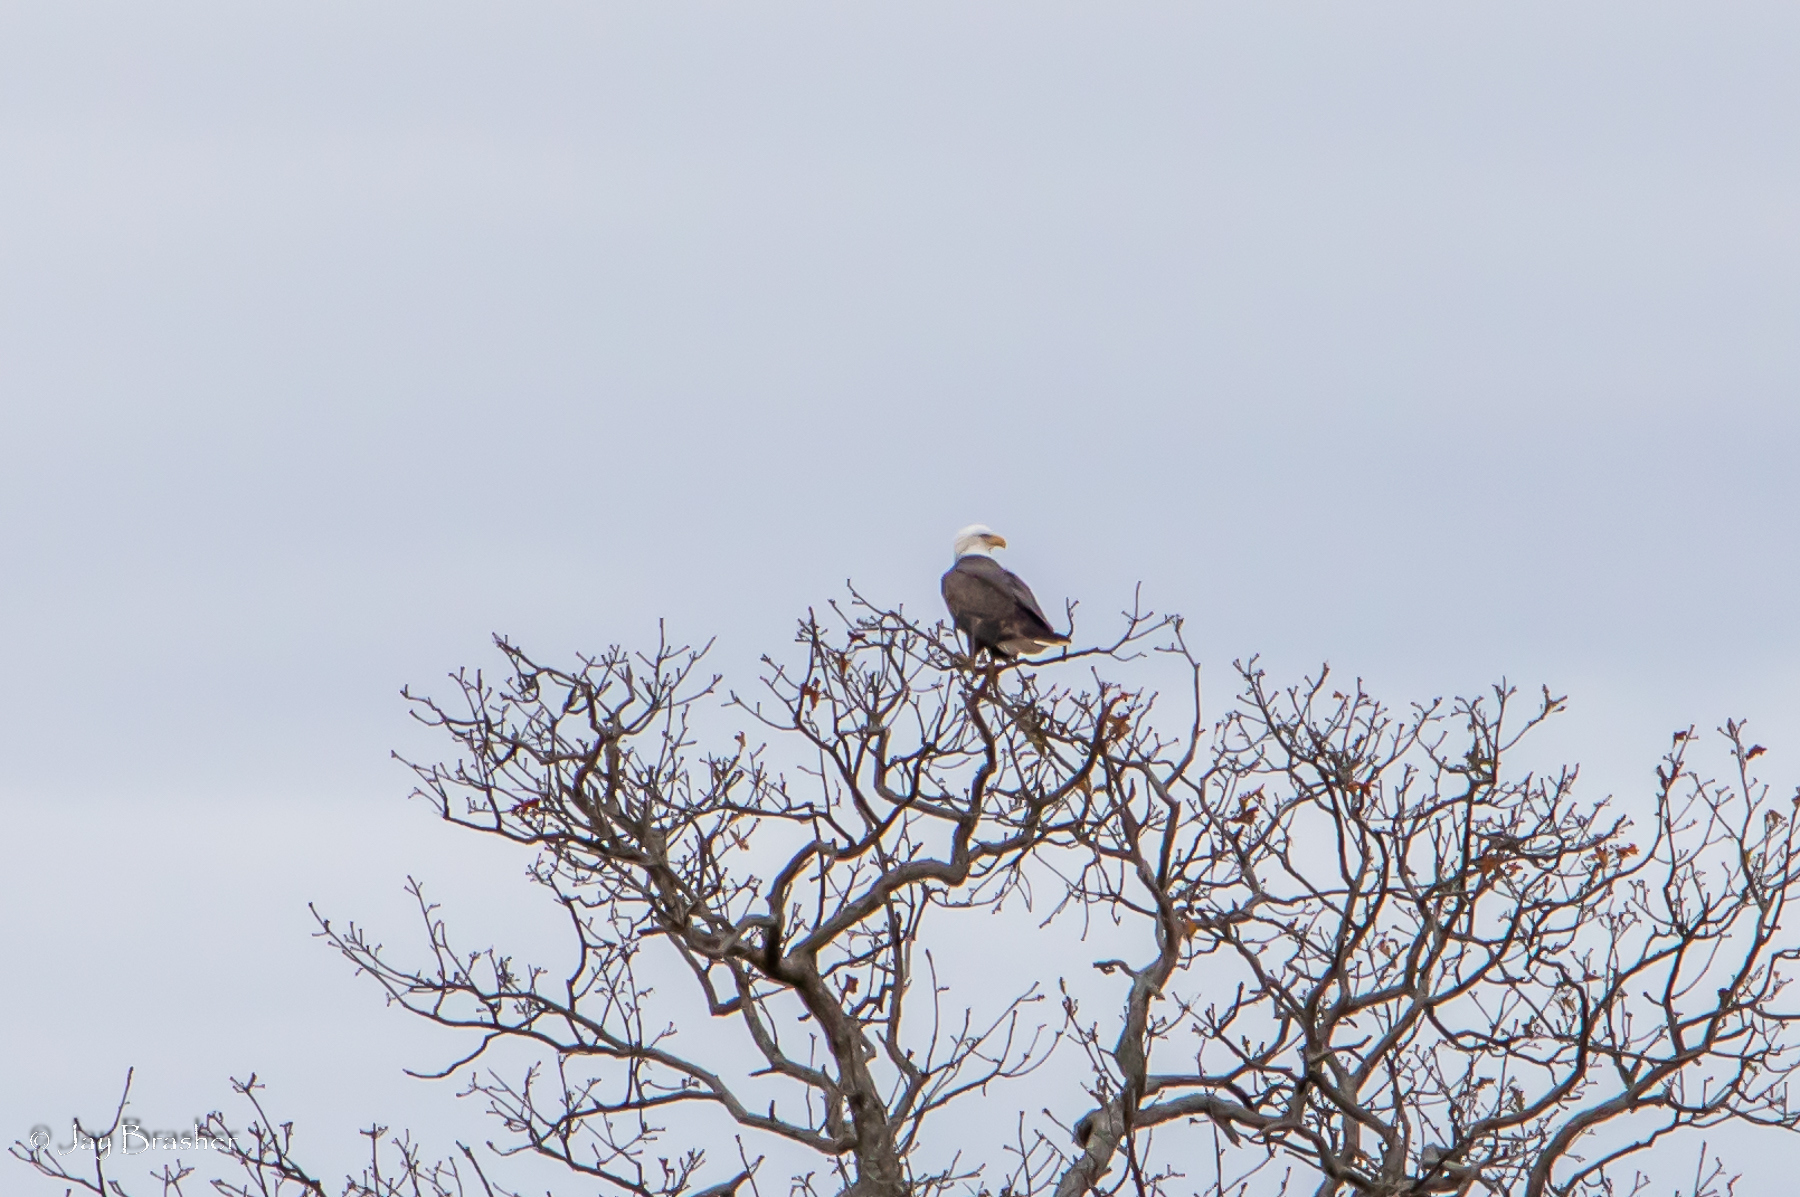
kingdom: Animalia
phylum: Chordata
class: Aves
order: Accipitriformes
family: Accipitridae
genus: Haliaeetus
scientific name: Haliaeetus leucocephalus
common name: Bald eagle
